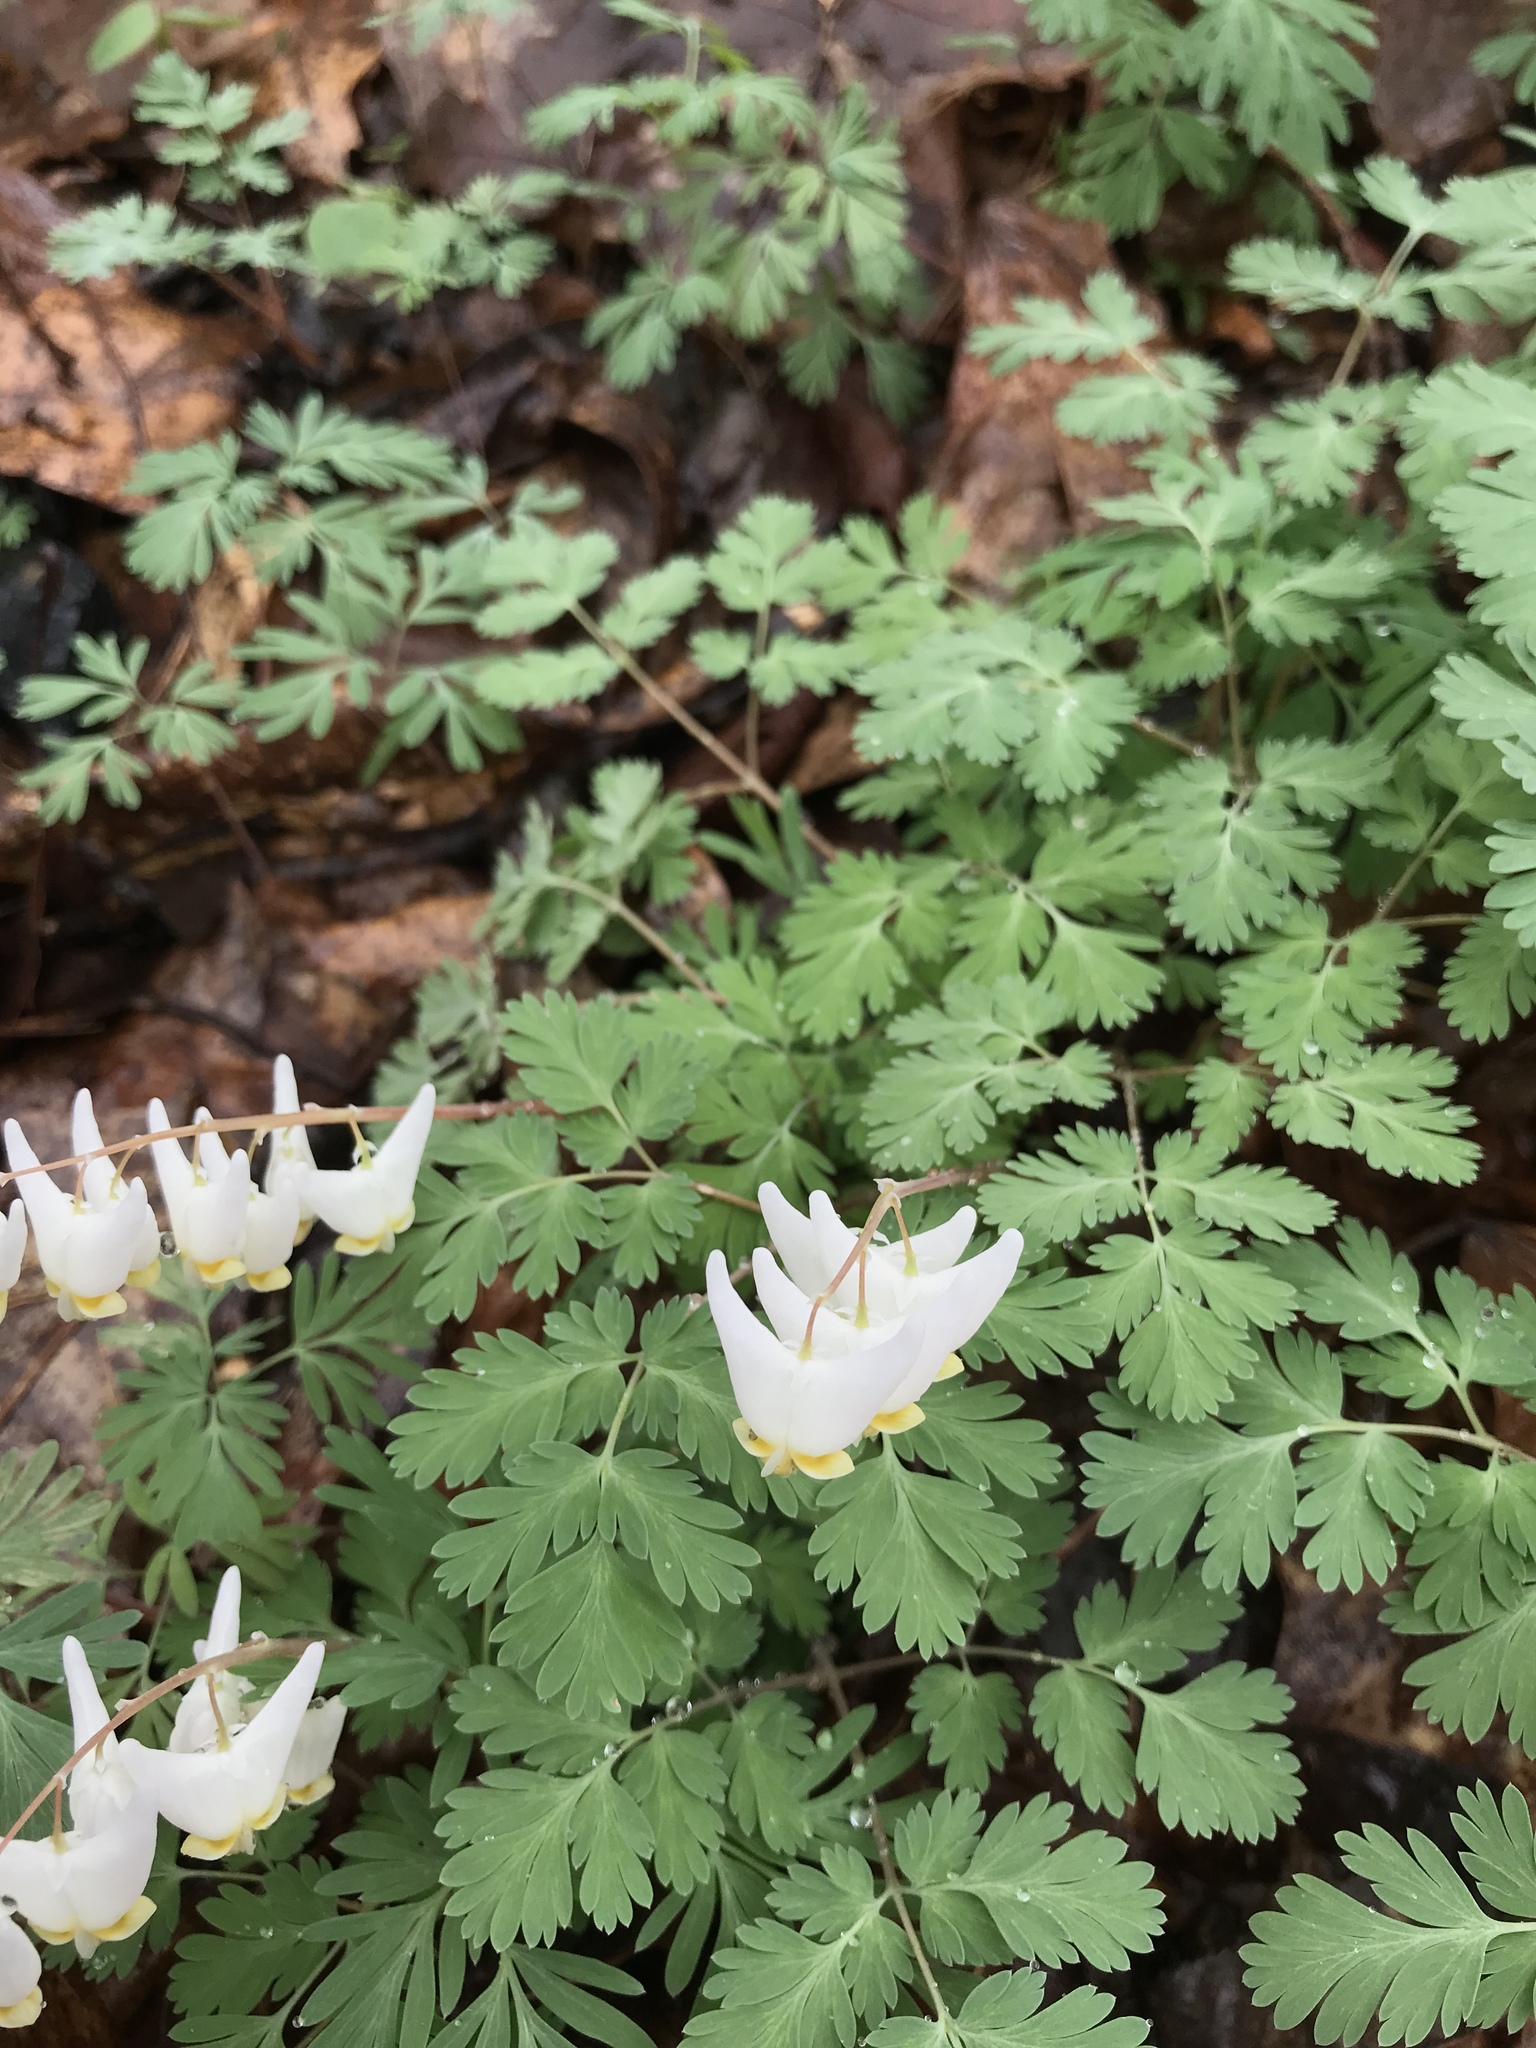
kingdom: Plantae
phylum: Tracheophyta
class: Magnoliopsida
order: Ranunculales
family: Papaveraceae
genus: Dicentra
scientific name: Dicentra cucullaria
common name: Dutchman's breeches
